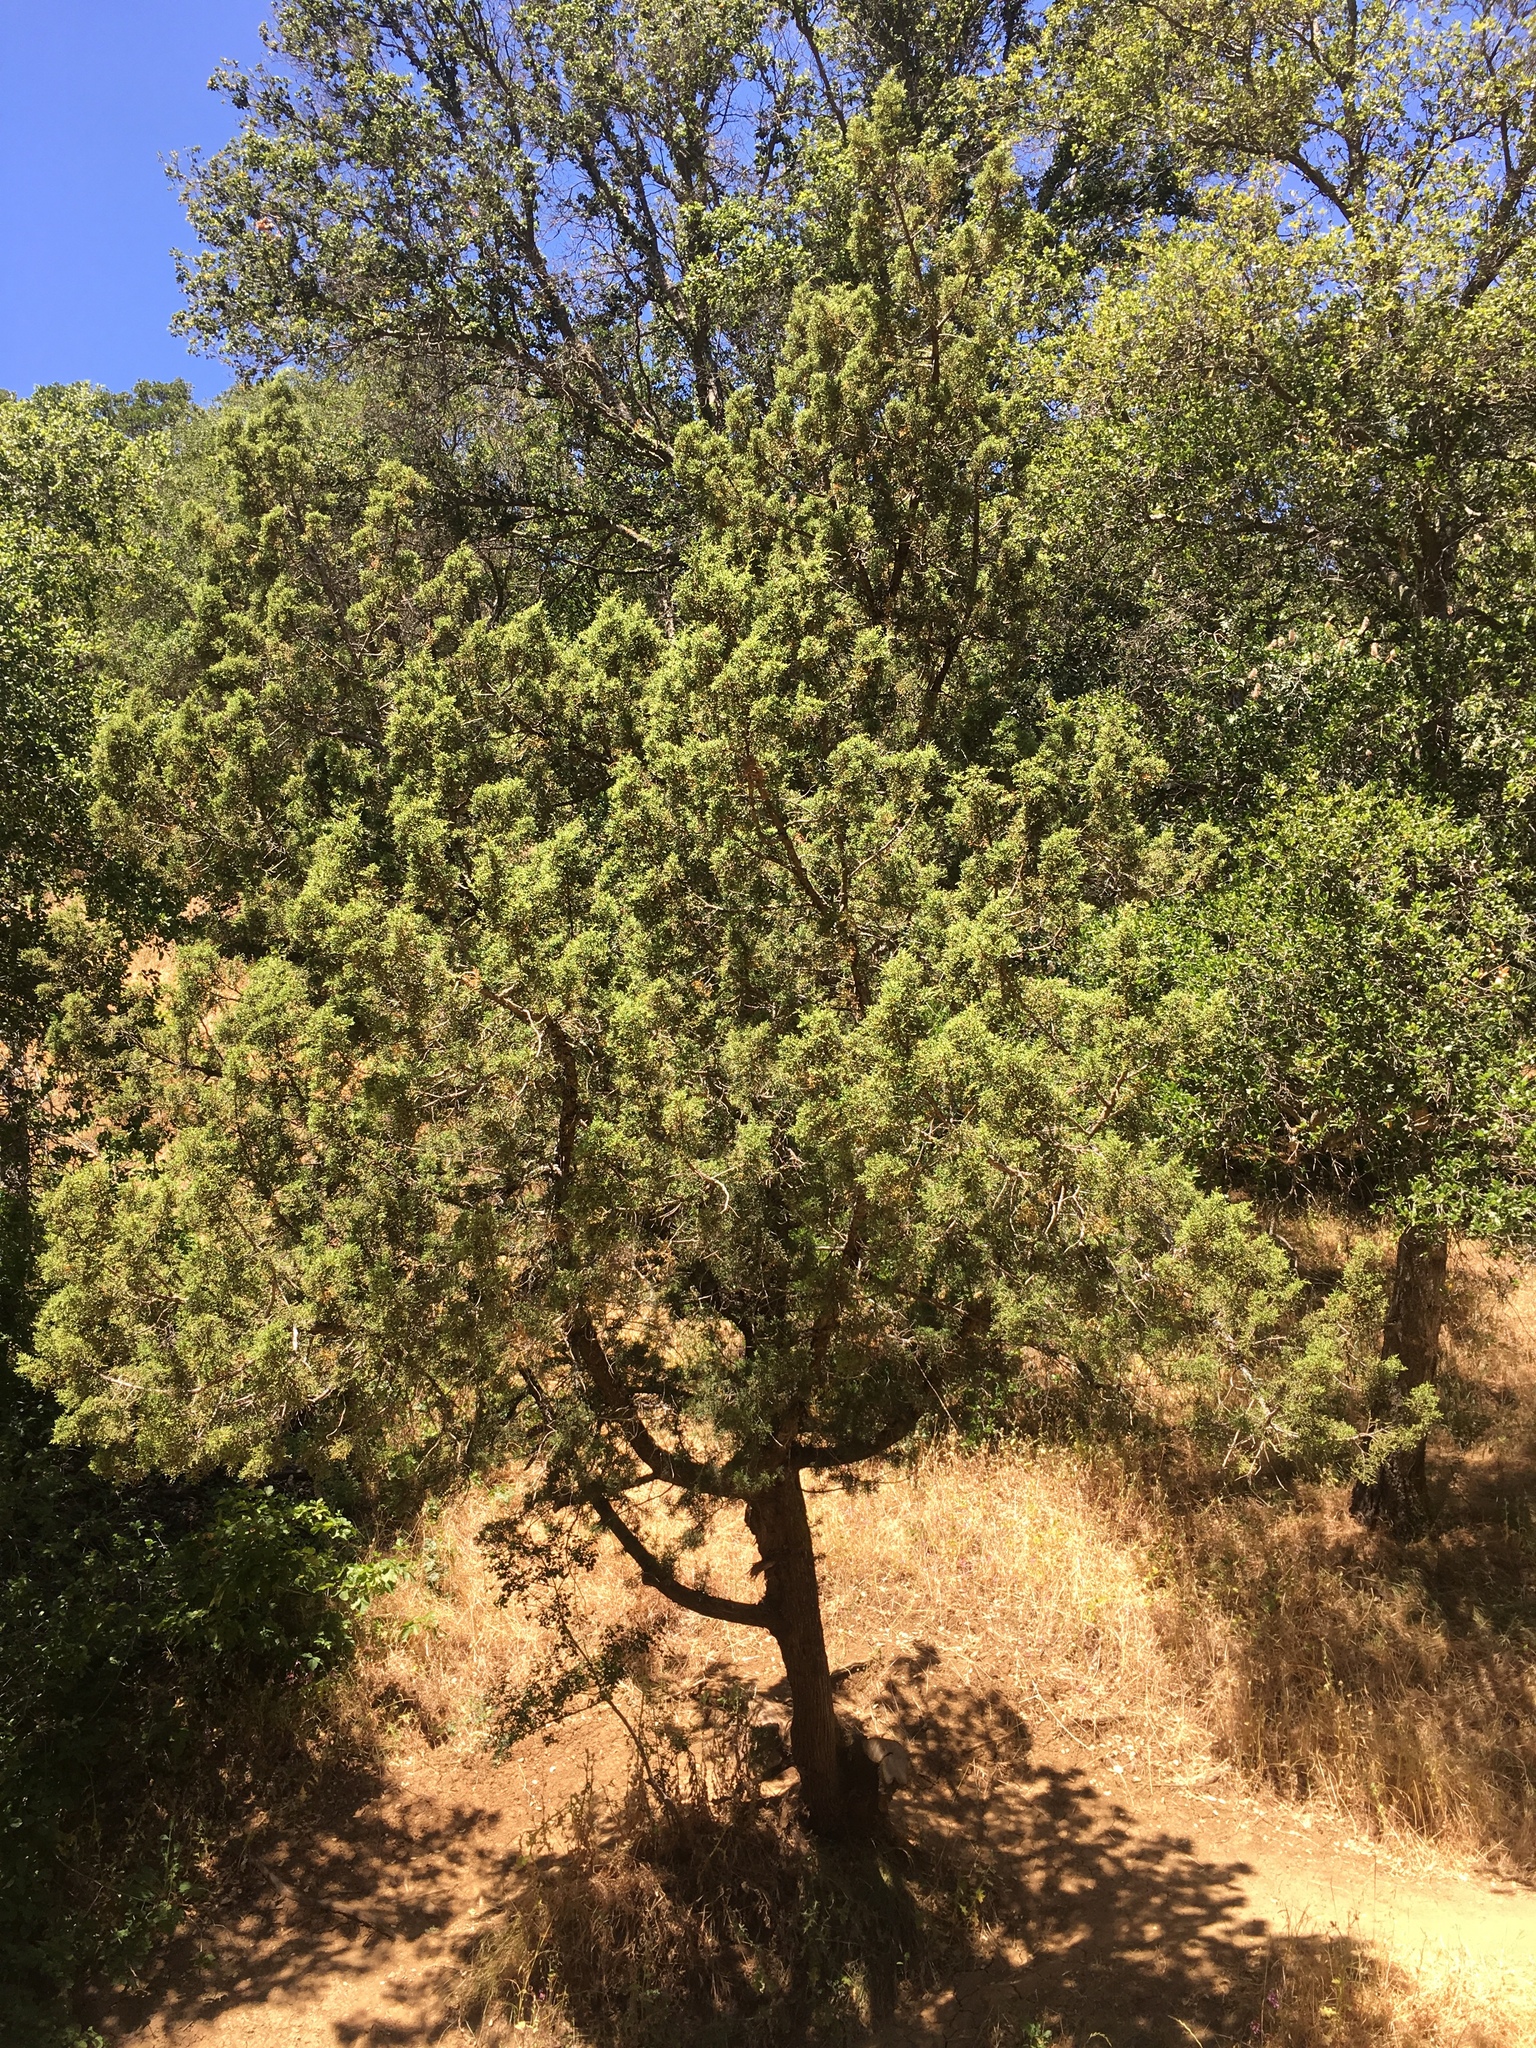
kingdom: Plantae
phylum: Tracheophyta
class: Pinopsida
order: Pinales
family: Cupressaceae
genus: Juniperus
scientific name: Juniperus californica
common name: California juniper
